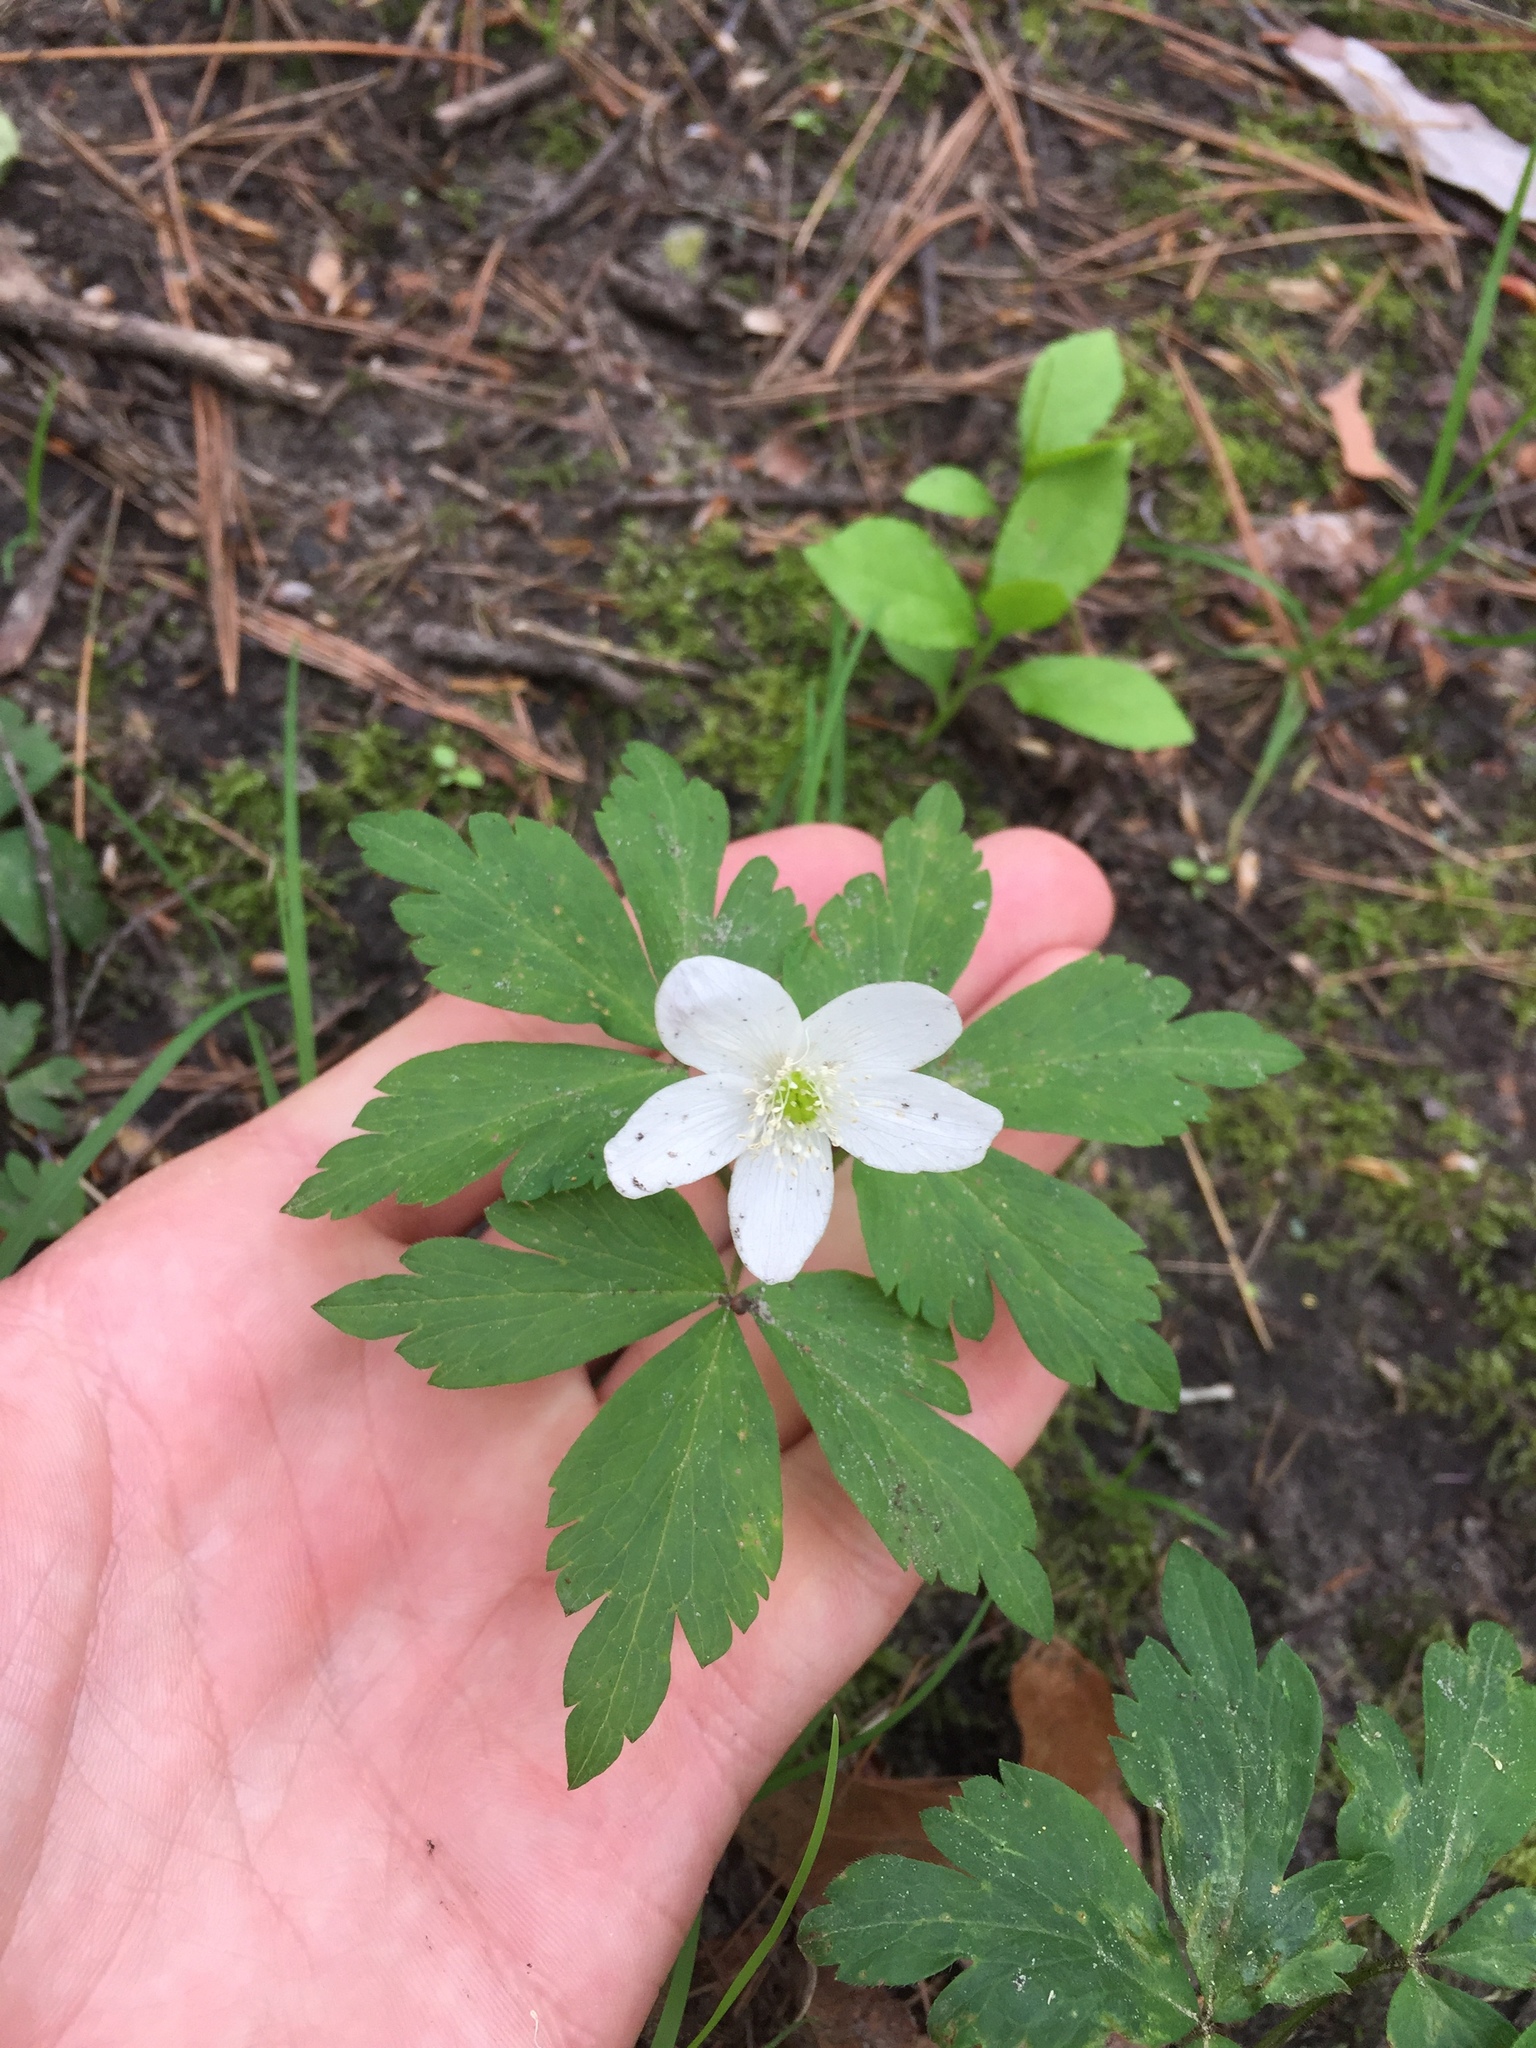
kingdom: Plantae
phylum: Tracheophyta
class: Magnoliopsida
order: Ranunculales
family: Ranunculaceae
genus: Anemone
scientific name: Anemone quinquefolia
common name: Wood anemone
